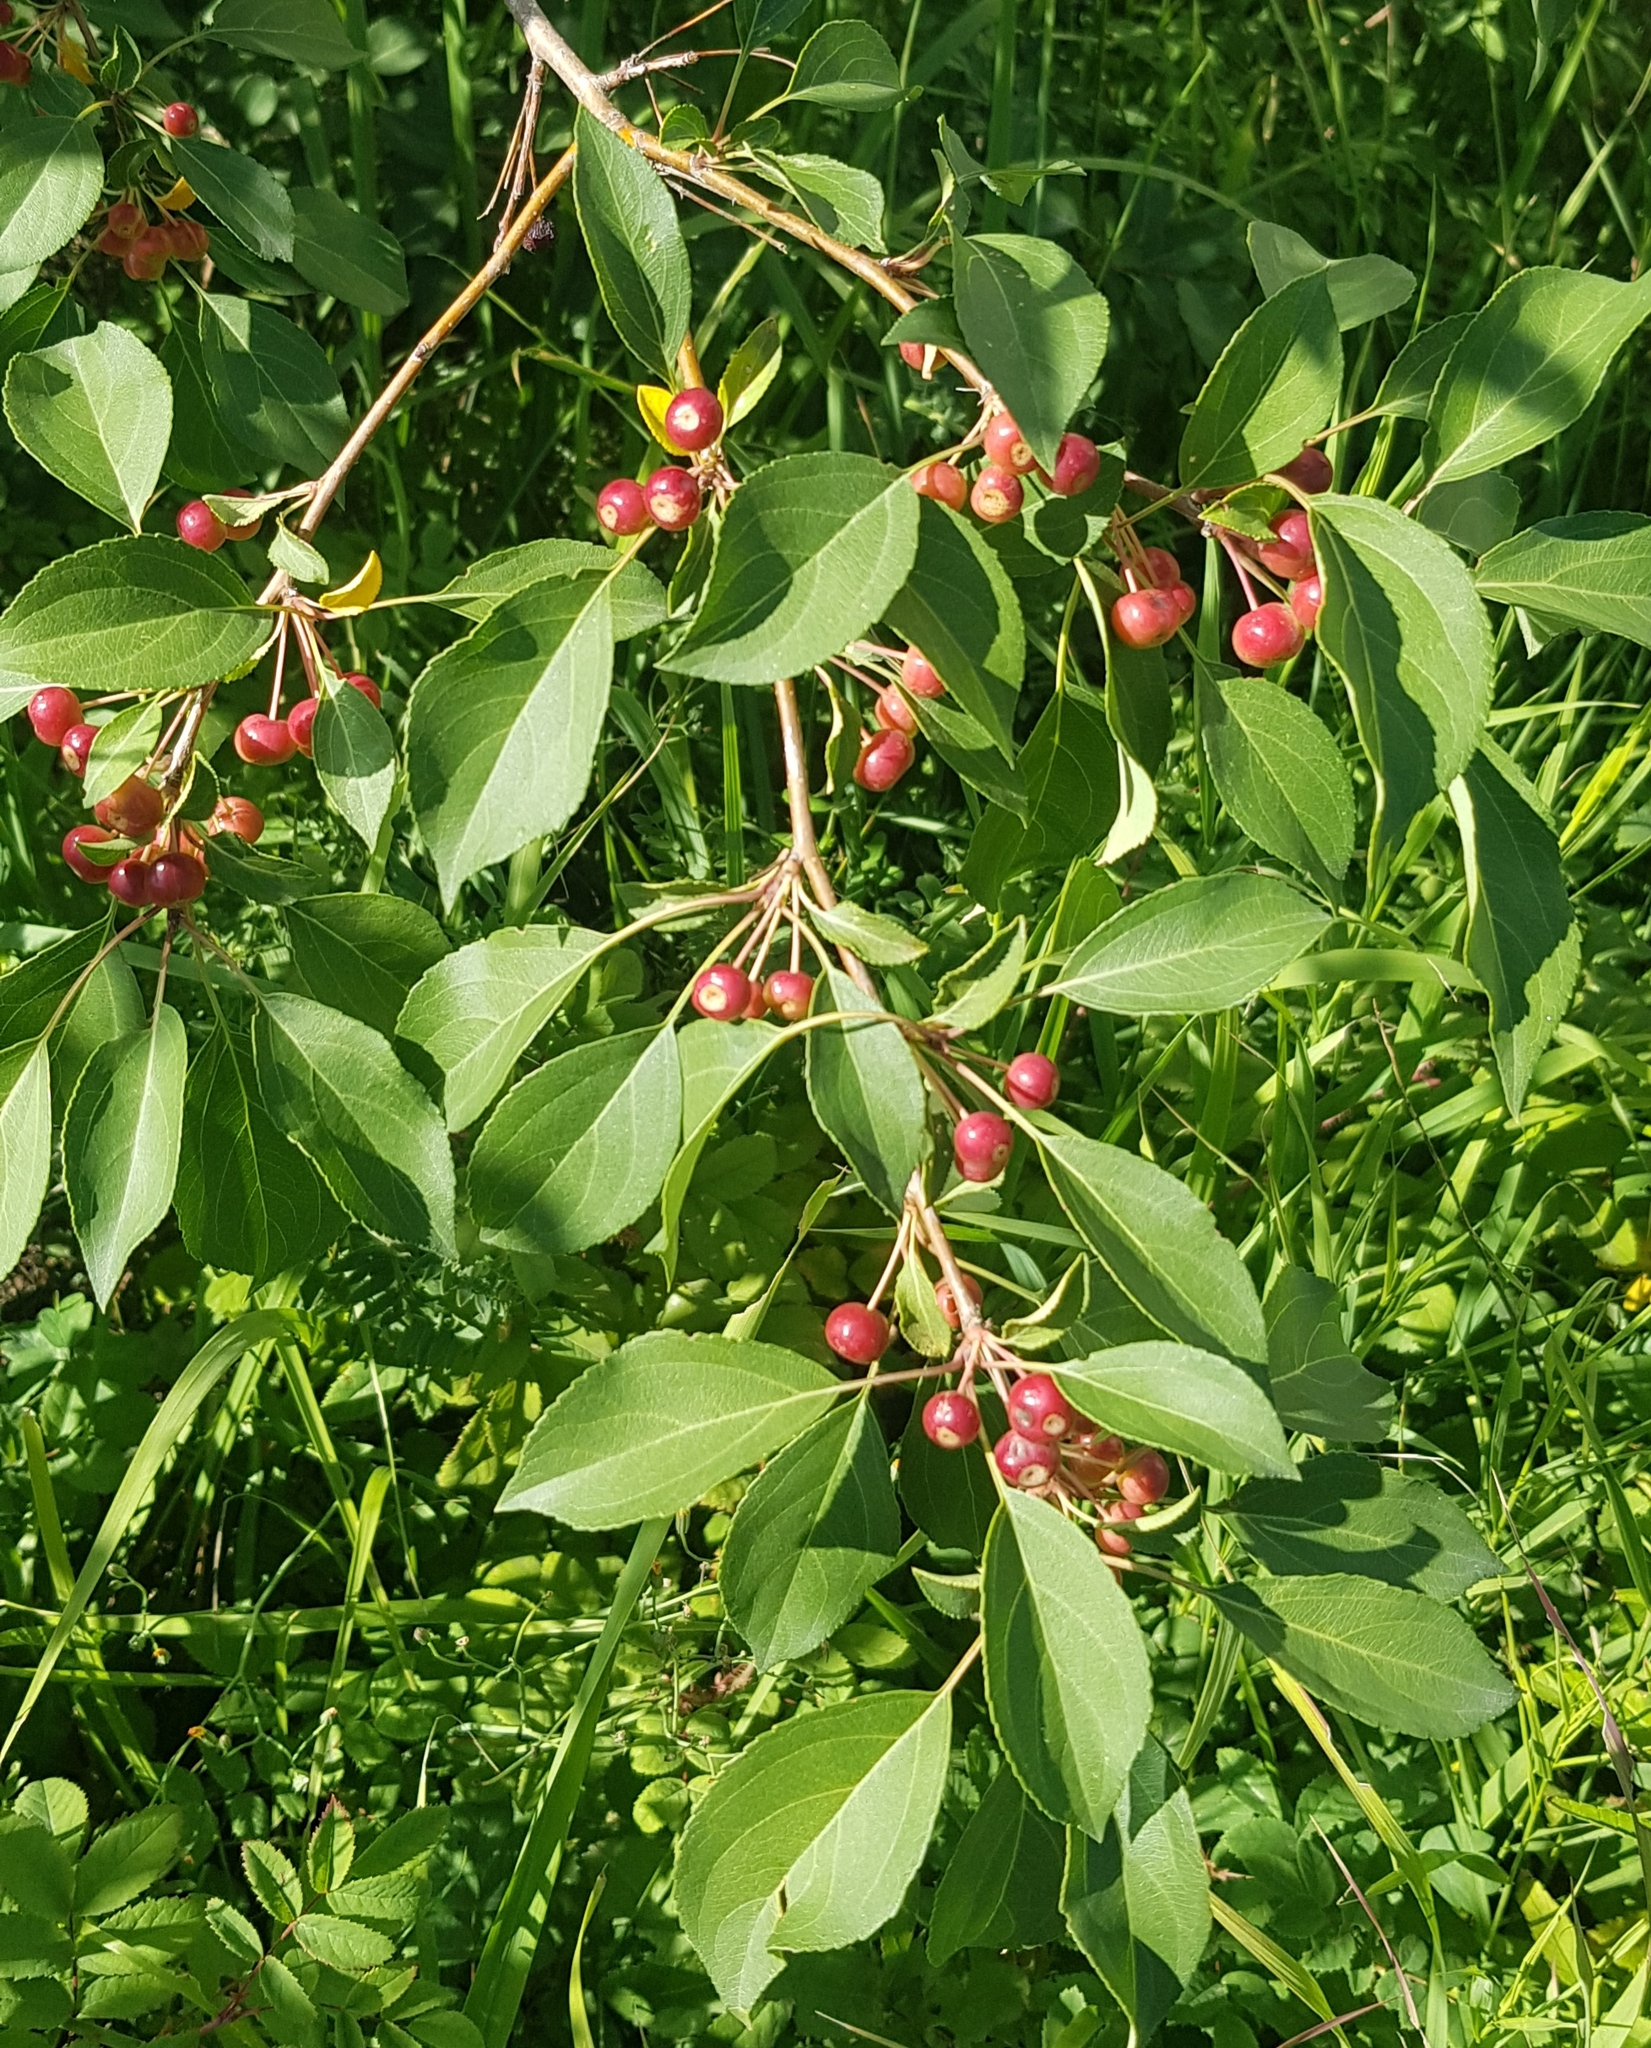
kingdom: Plantae
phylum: Tracheophyta
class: Magnoliopsida
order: Rosales
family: Rosaceae
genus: Malus
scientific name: Malus baccata
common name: Siberian crab
